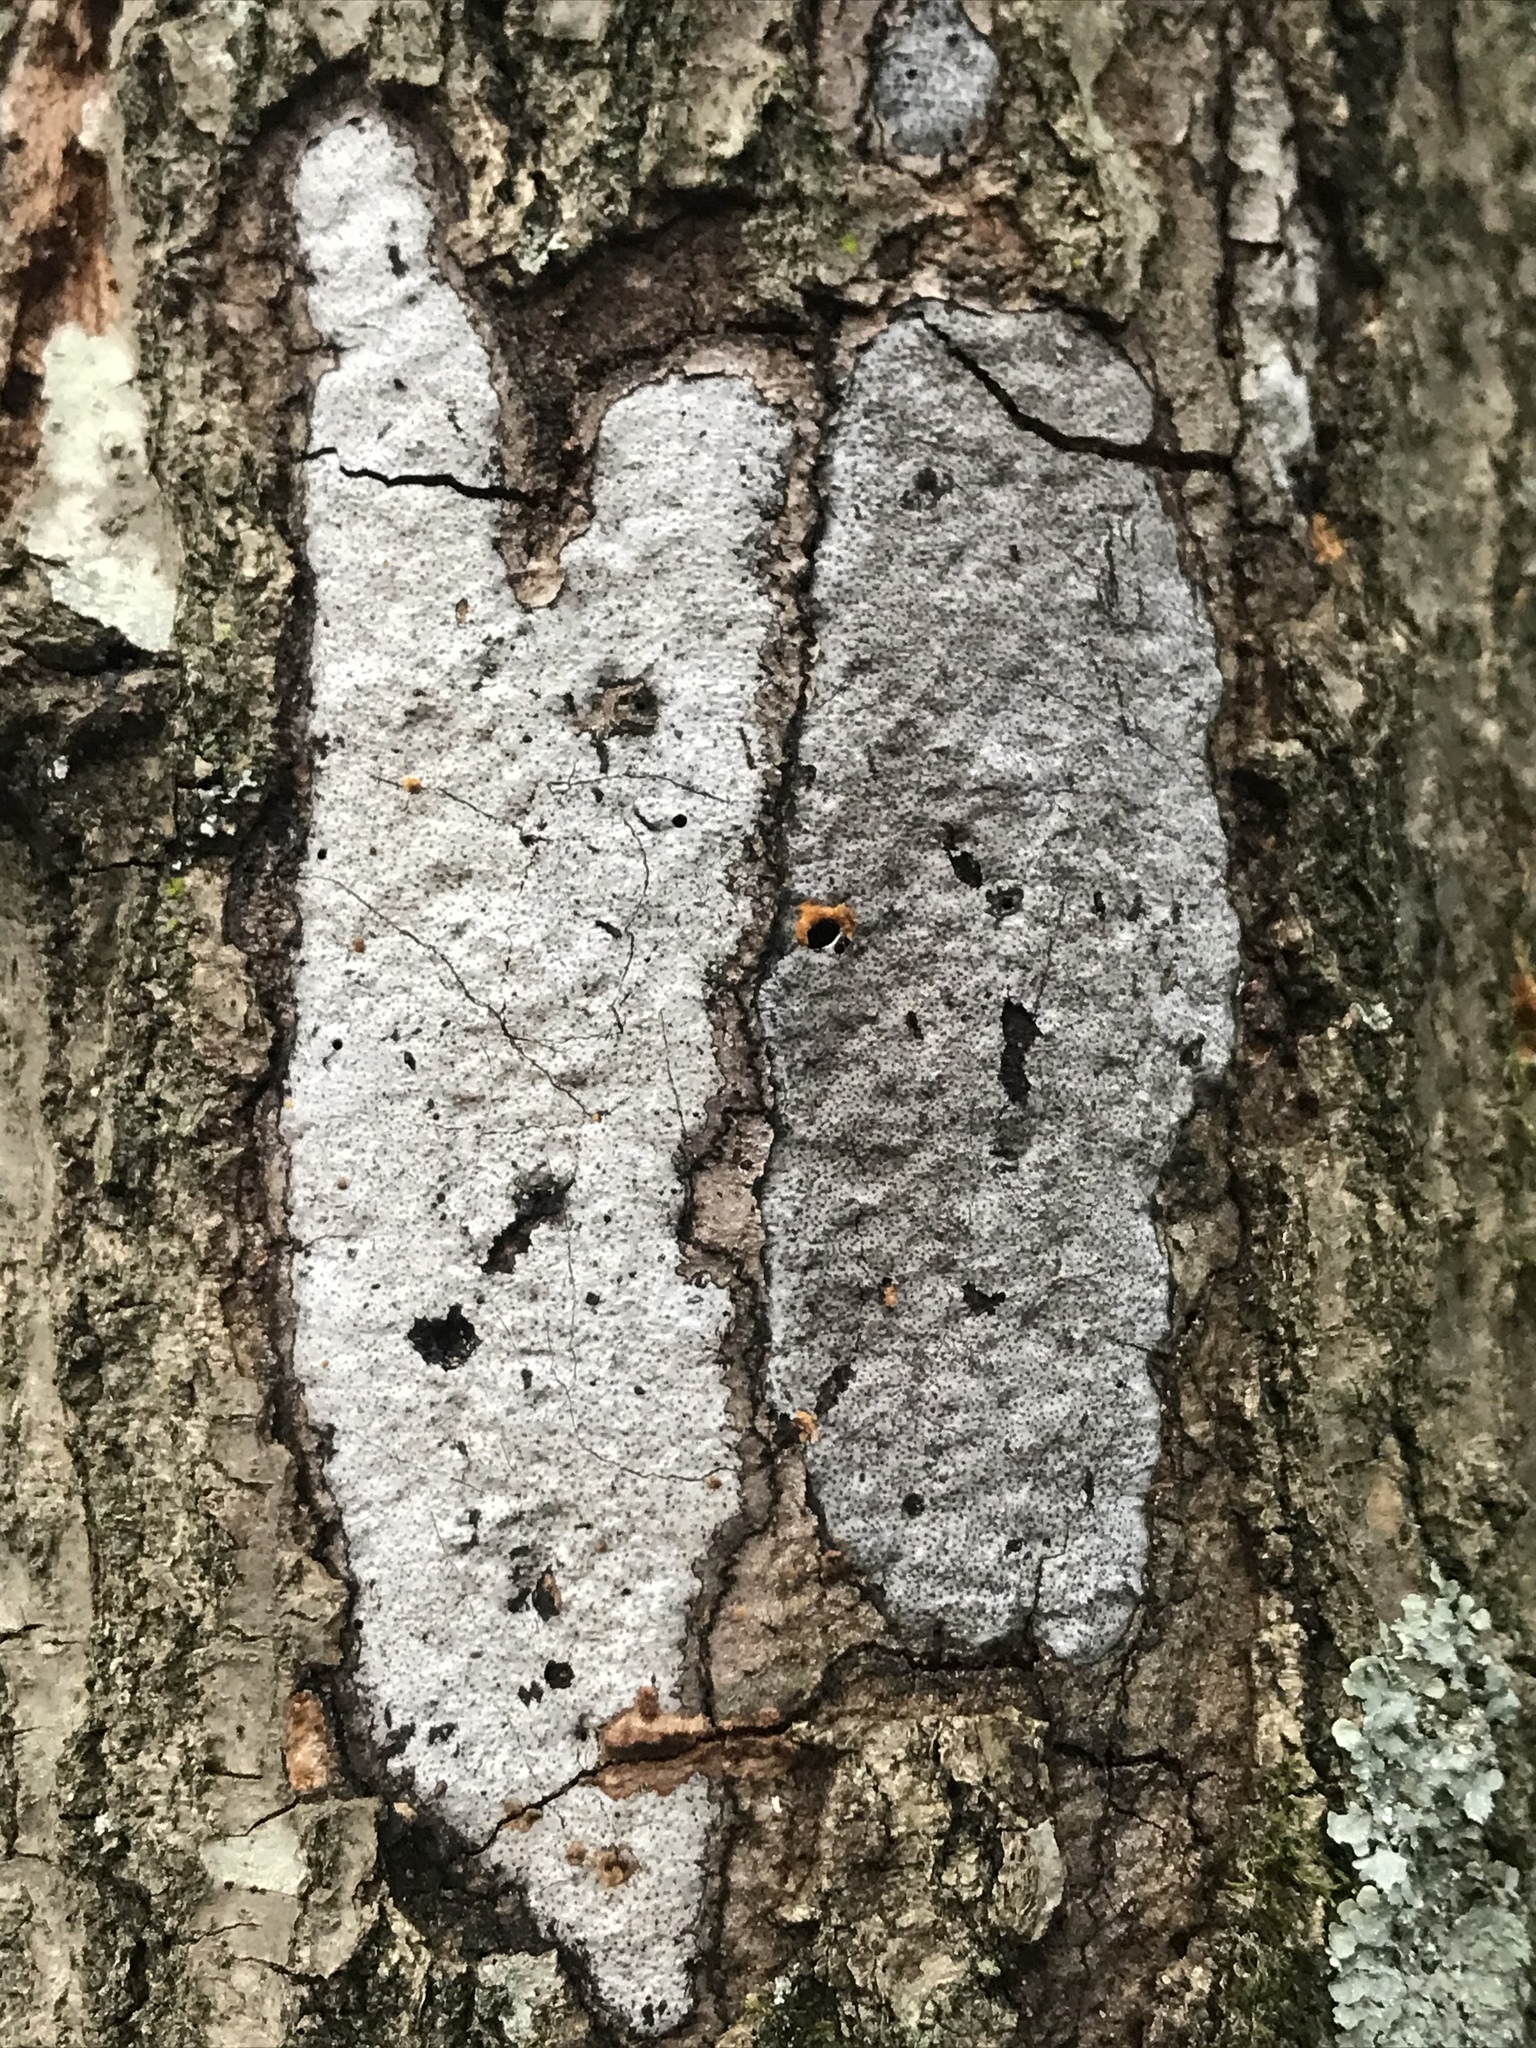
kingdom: Fungi
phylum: Ascomycota
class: Sordariomycetes
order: Xylariales
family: Graphostromataceae
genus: Biscogniauxia
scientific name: Biscogniauxia atropunctata
